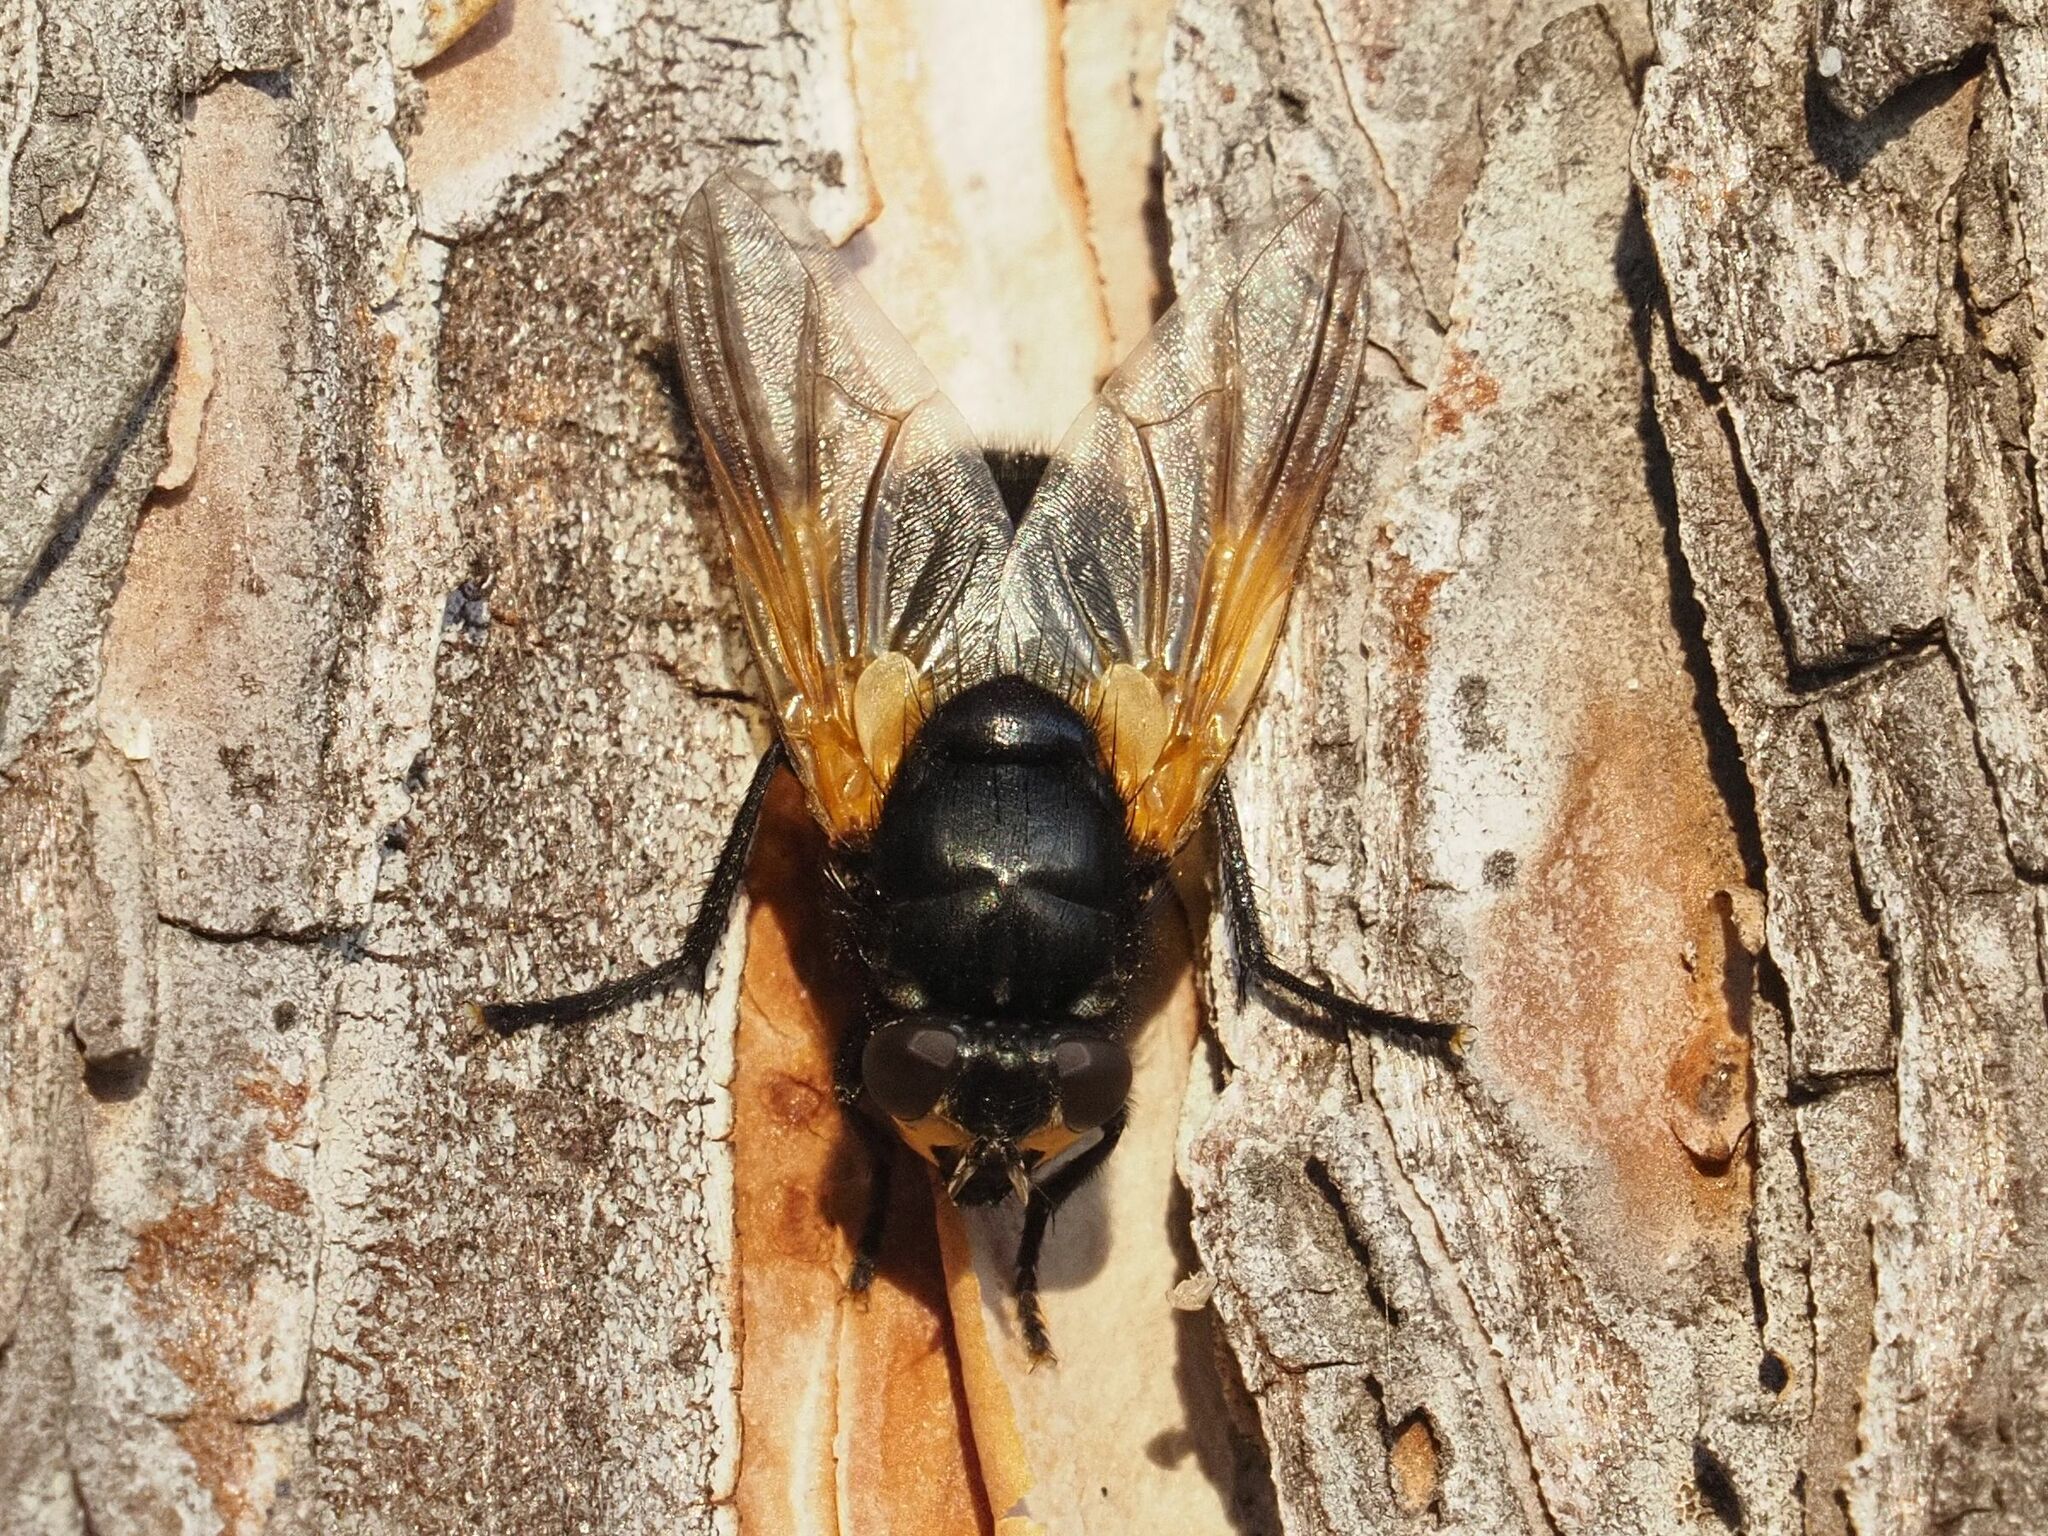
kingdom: Animalia
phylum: Arthropoda
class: Insecta
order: Diptera
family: Muscidae
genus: Mesembrina
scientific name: Mesembrina meridiana
